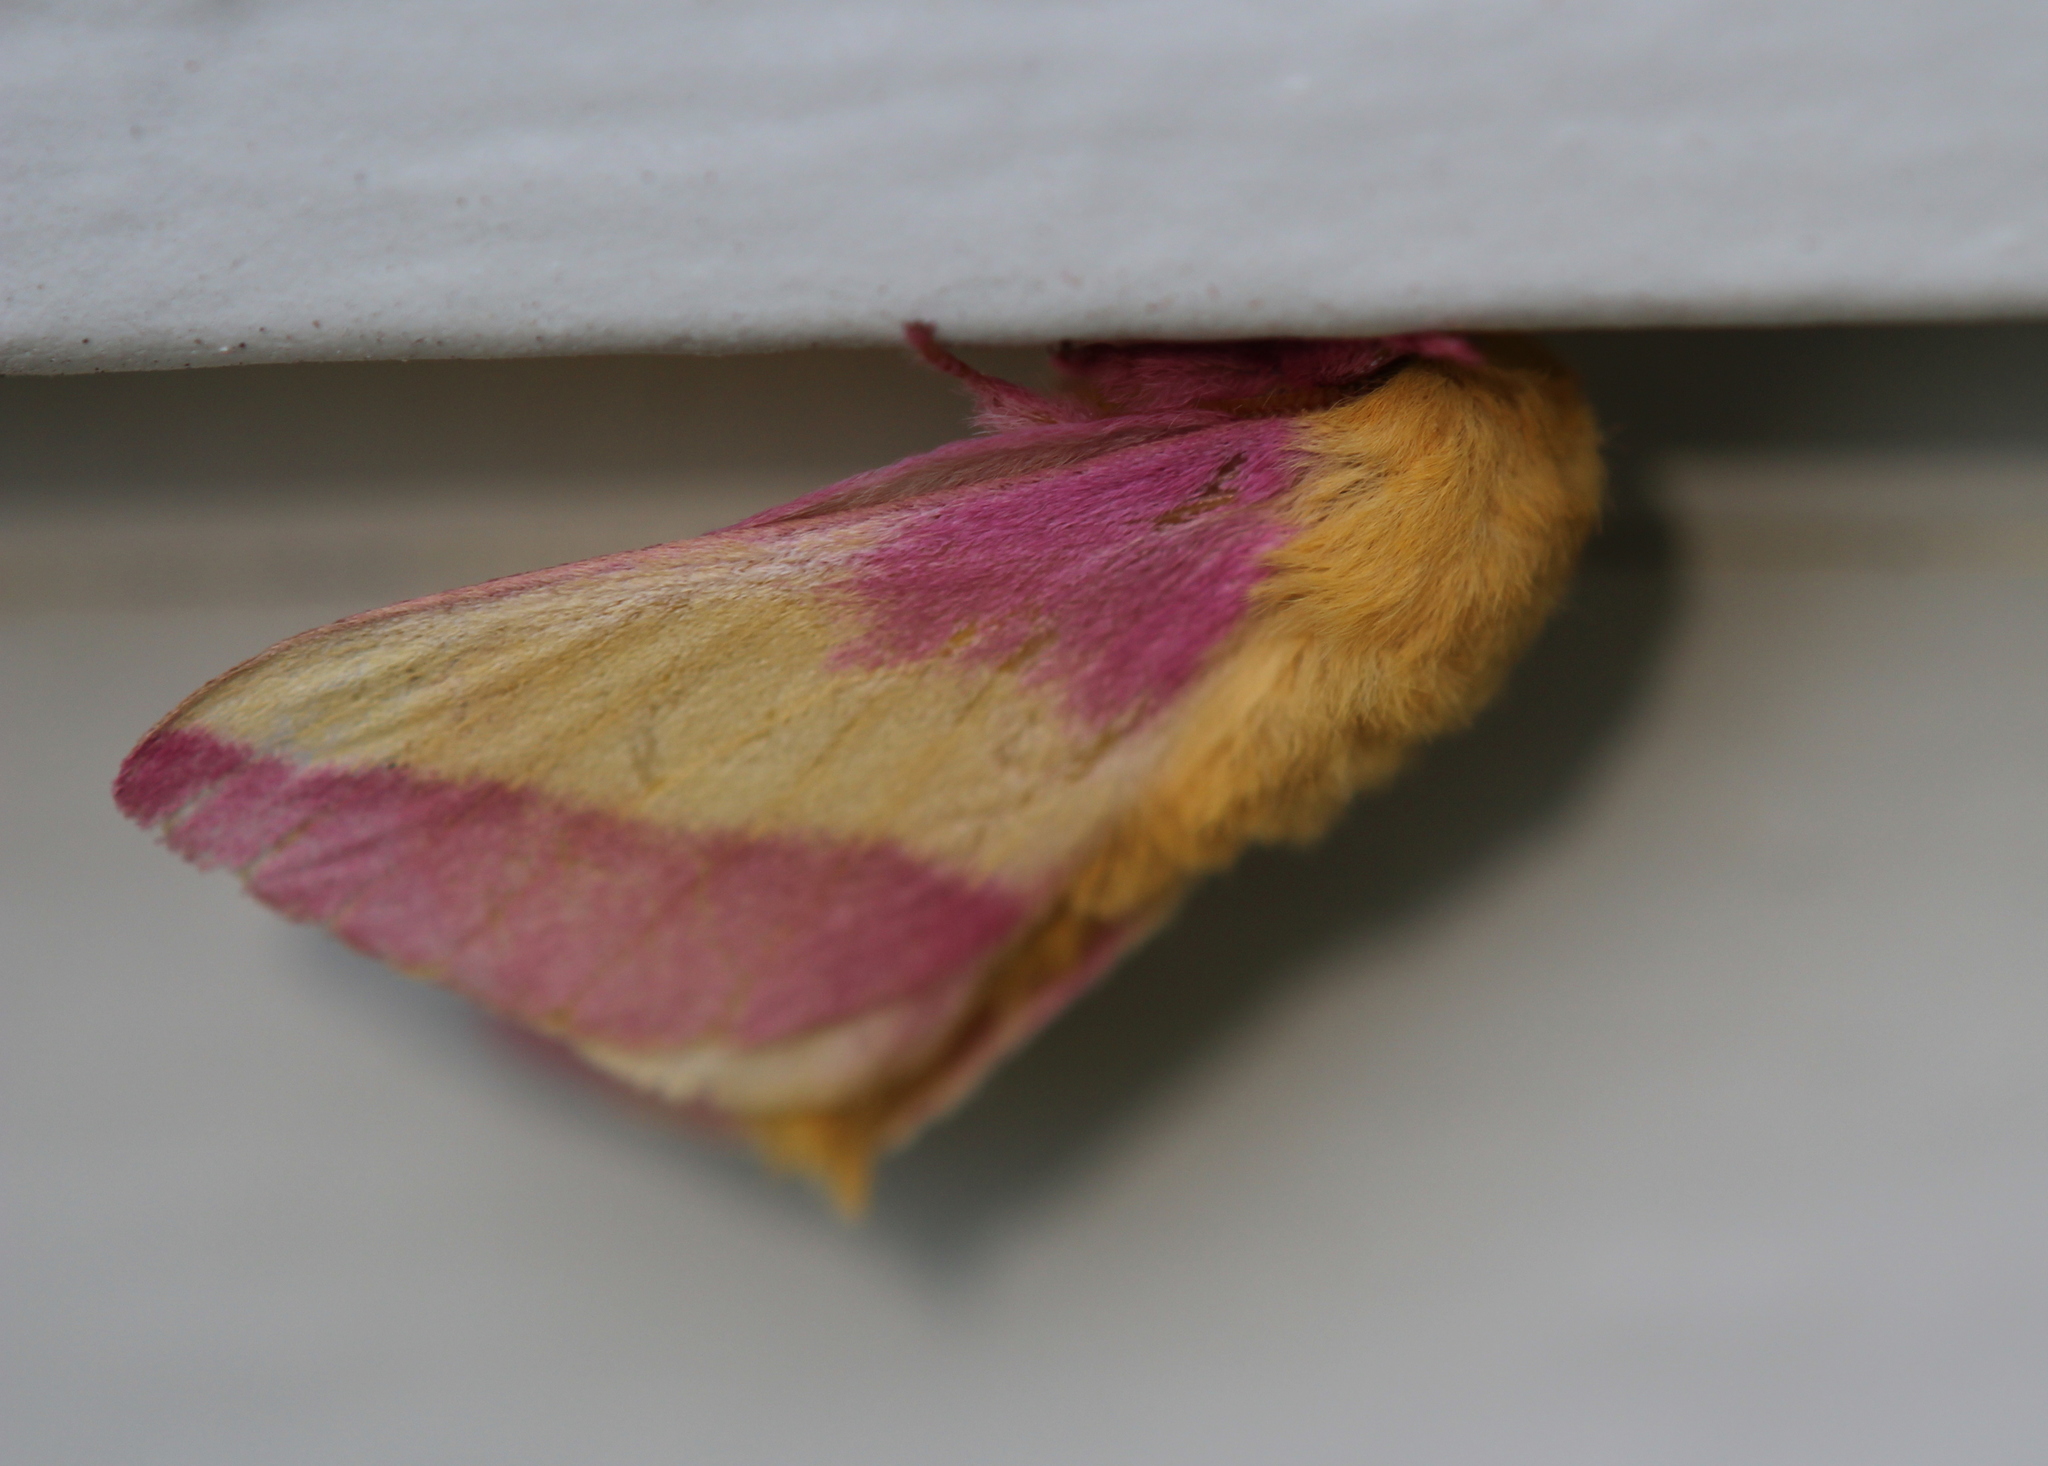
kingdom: Animalia
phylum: Arthropoda
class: Insecta
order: Lepidoptera
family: Saturniidae
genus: Dryocampa
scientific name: Dryocampa rubicunda
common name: Rosy maple moth
